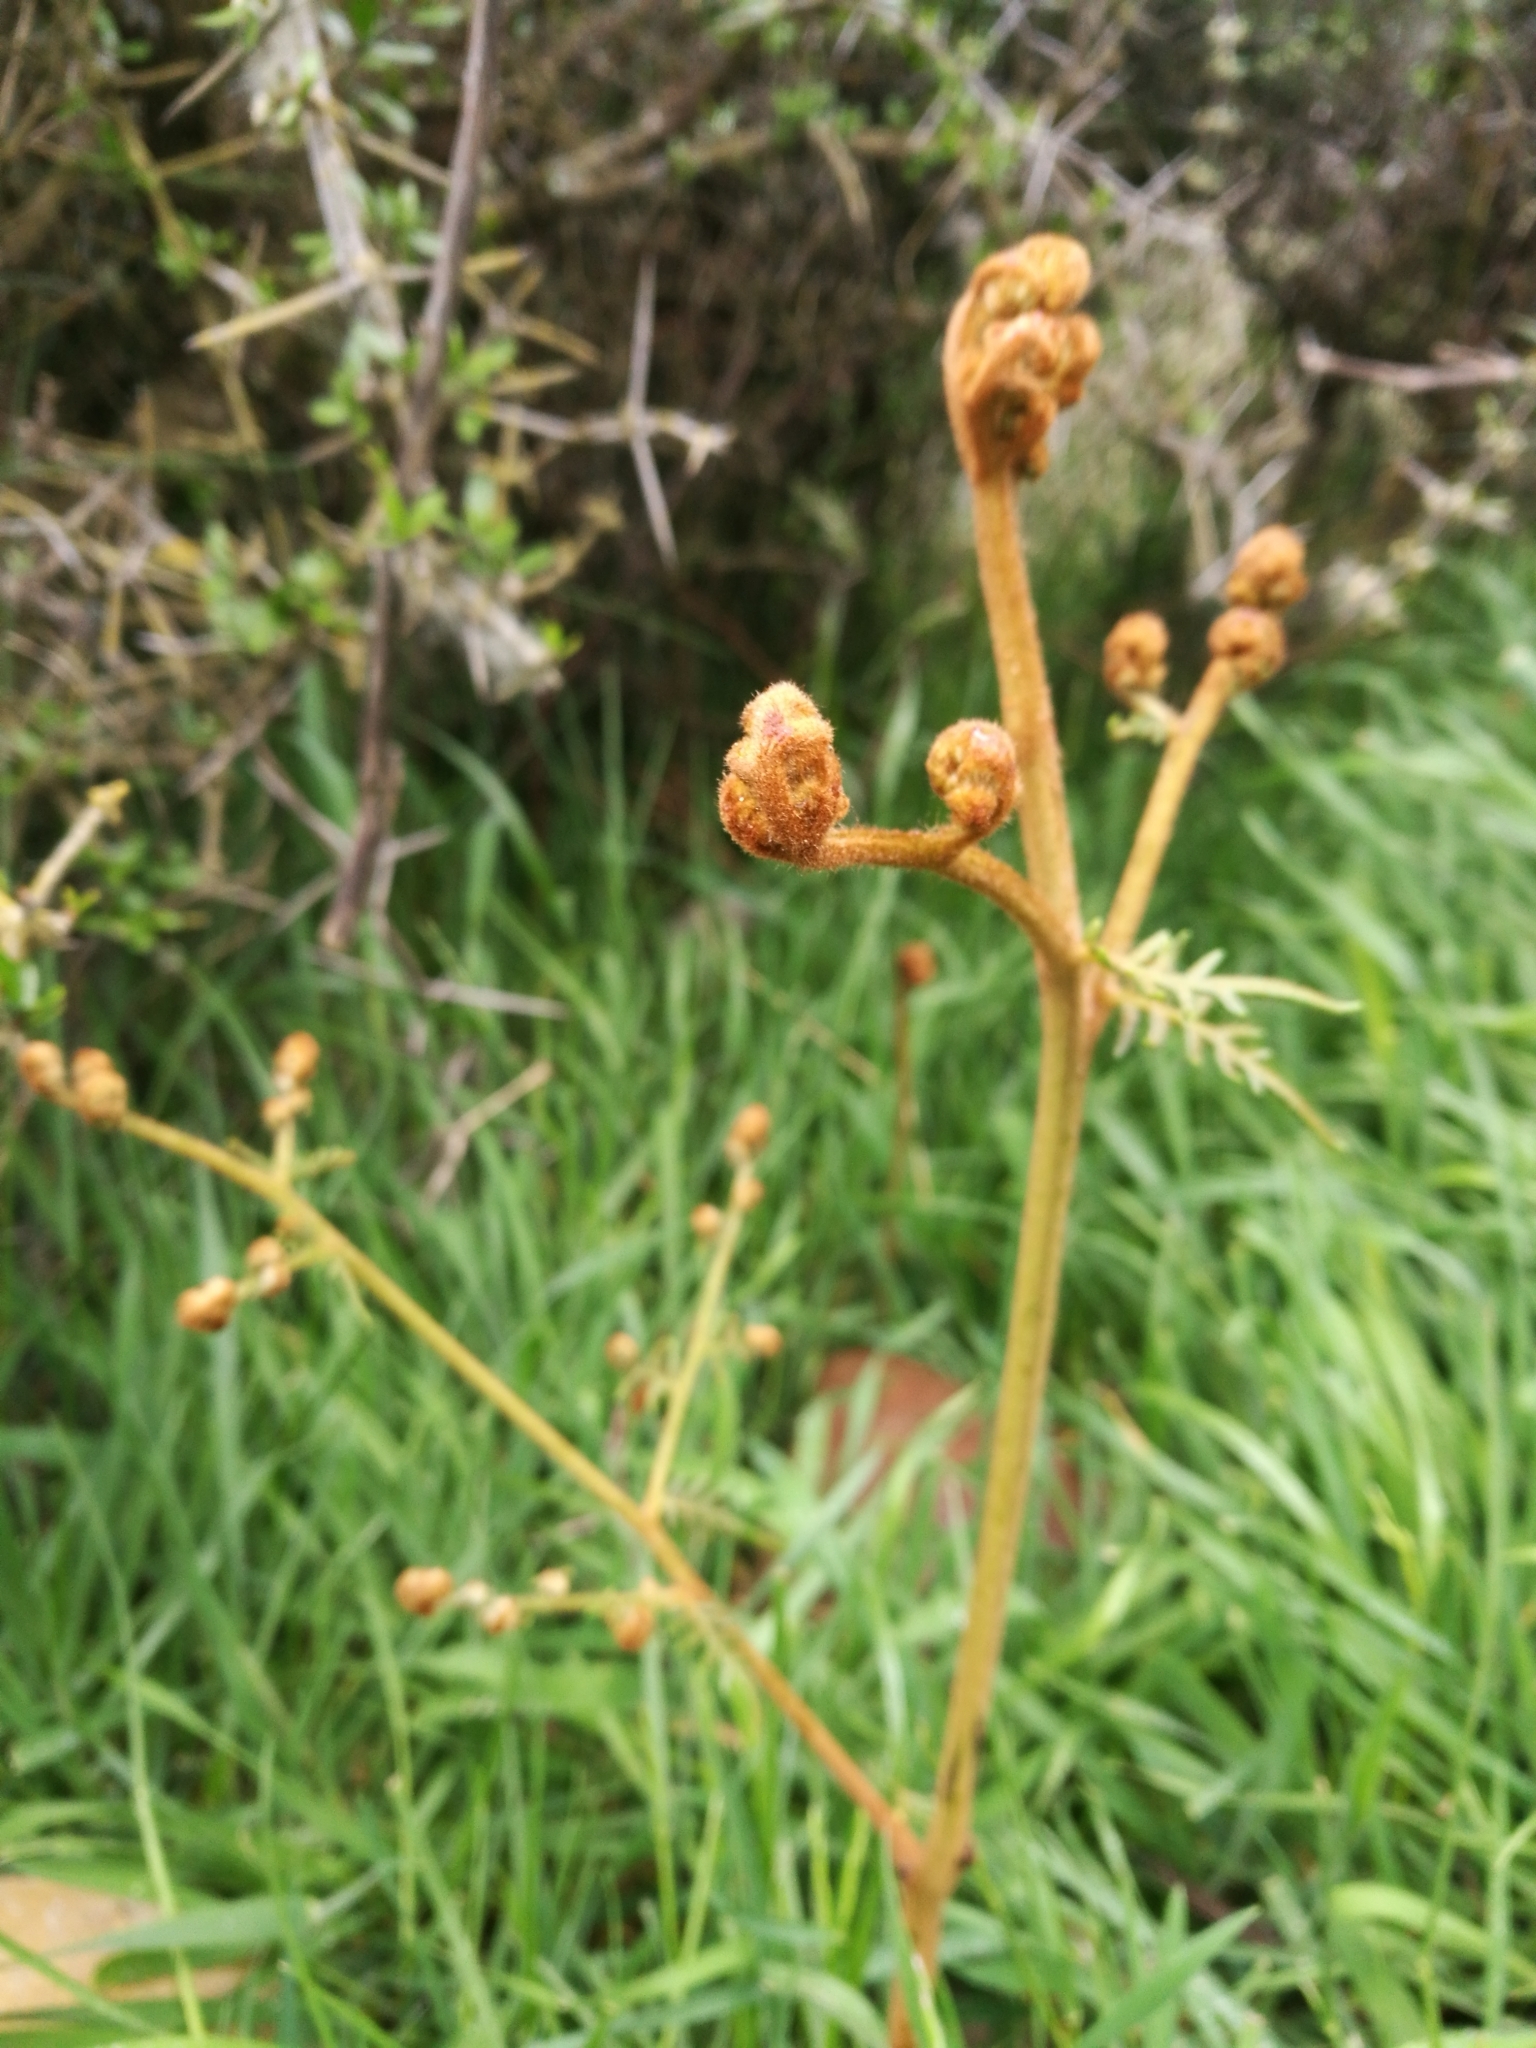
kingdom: Plantae
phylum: Tracheophyta
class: Polypodiopsida
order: Polypodiales
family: Dennstaedtiaceae
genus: Pteridium
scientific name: Pteridium esculentum
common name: Bracken fern
